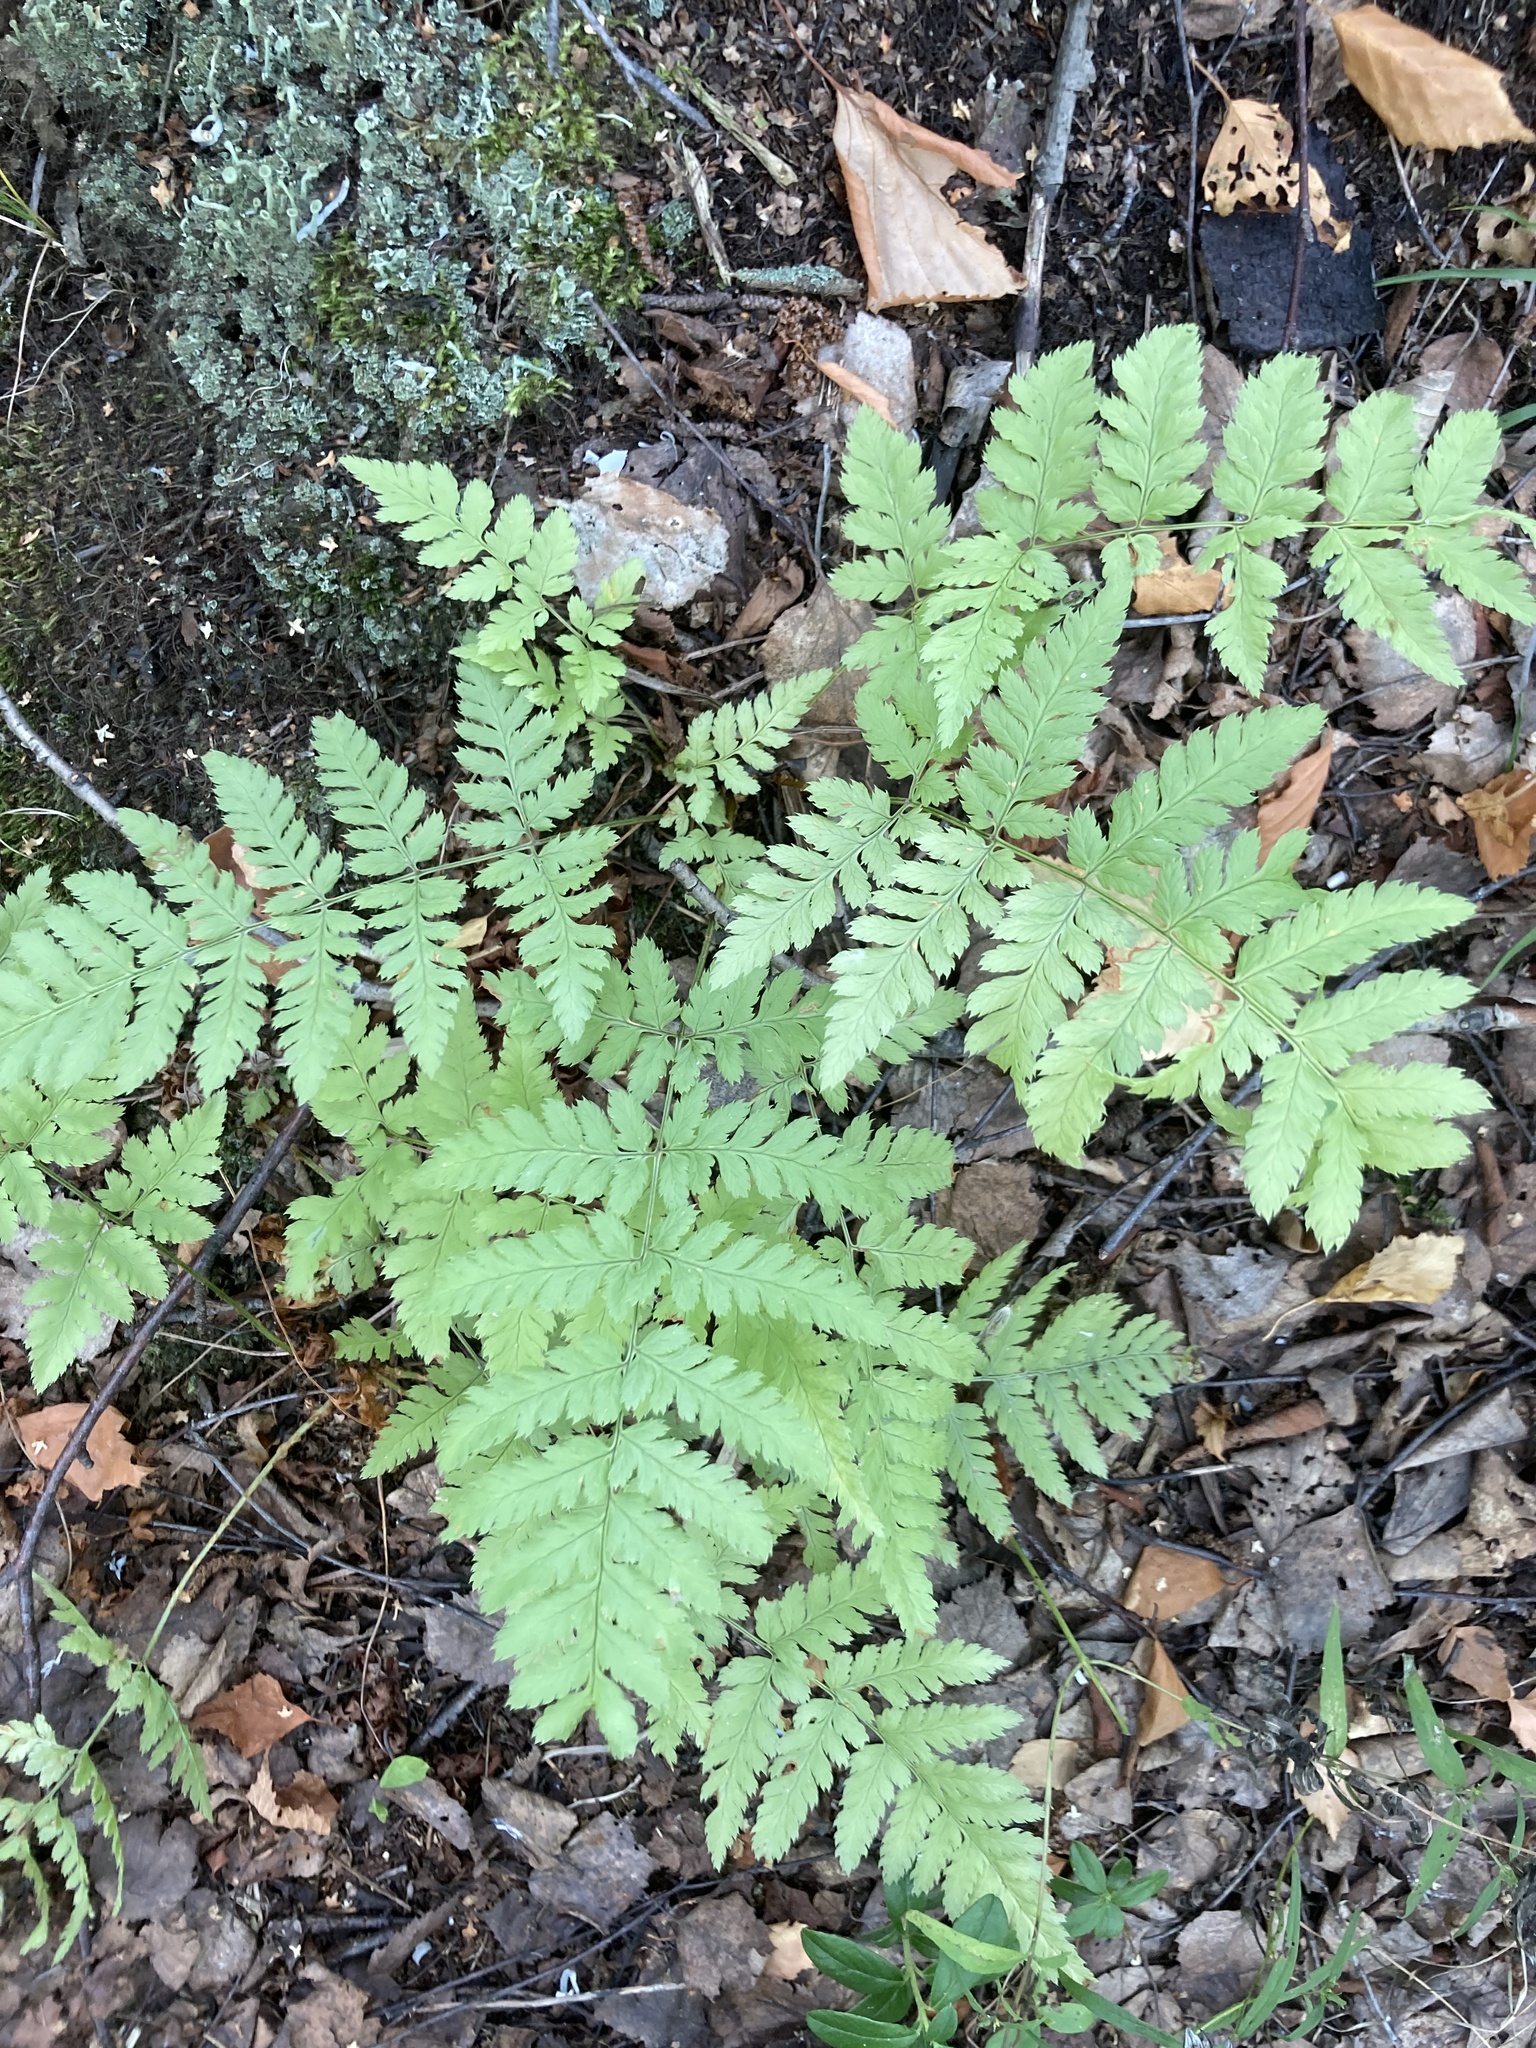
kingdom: Plantae
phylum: Tracheophyta
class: Polypodiopsida
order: Polypodiales
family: Dryopteridaceae
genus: Dryopteris
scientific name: Dryopteris carthusiana
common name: Narrow buckler-fern
